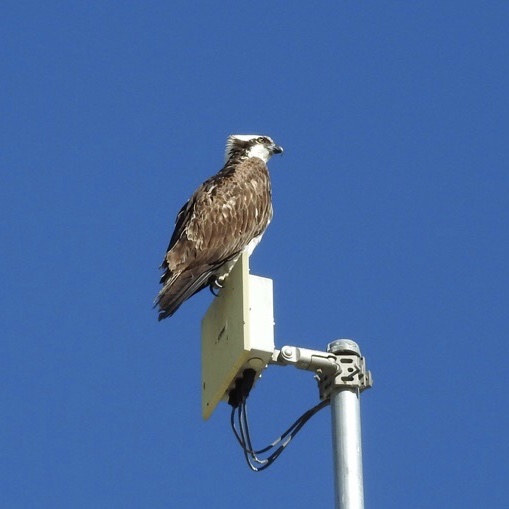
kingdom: Animalia
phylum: Chordata
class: Aves
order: Accipitriformes
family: Pandionidae
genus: Pandion
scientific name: Pandion haliaetus
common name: Osprey
